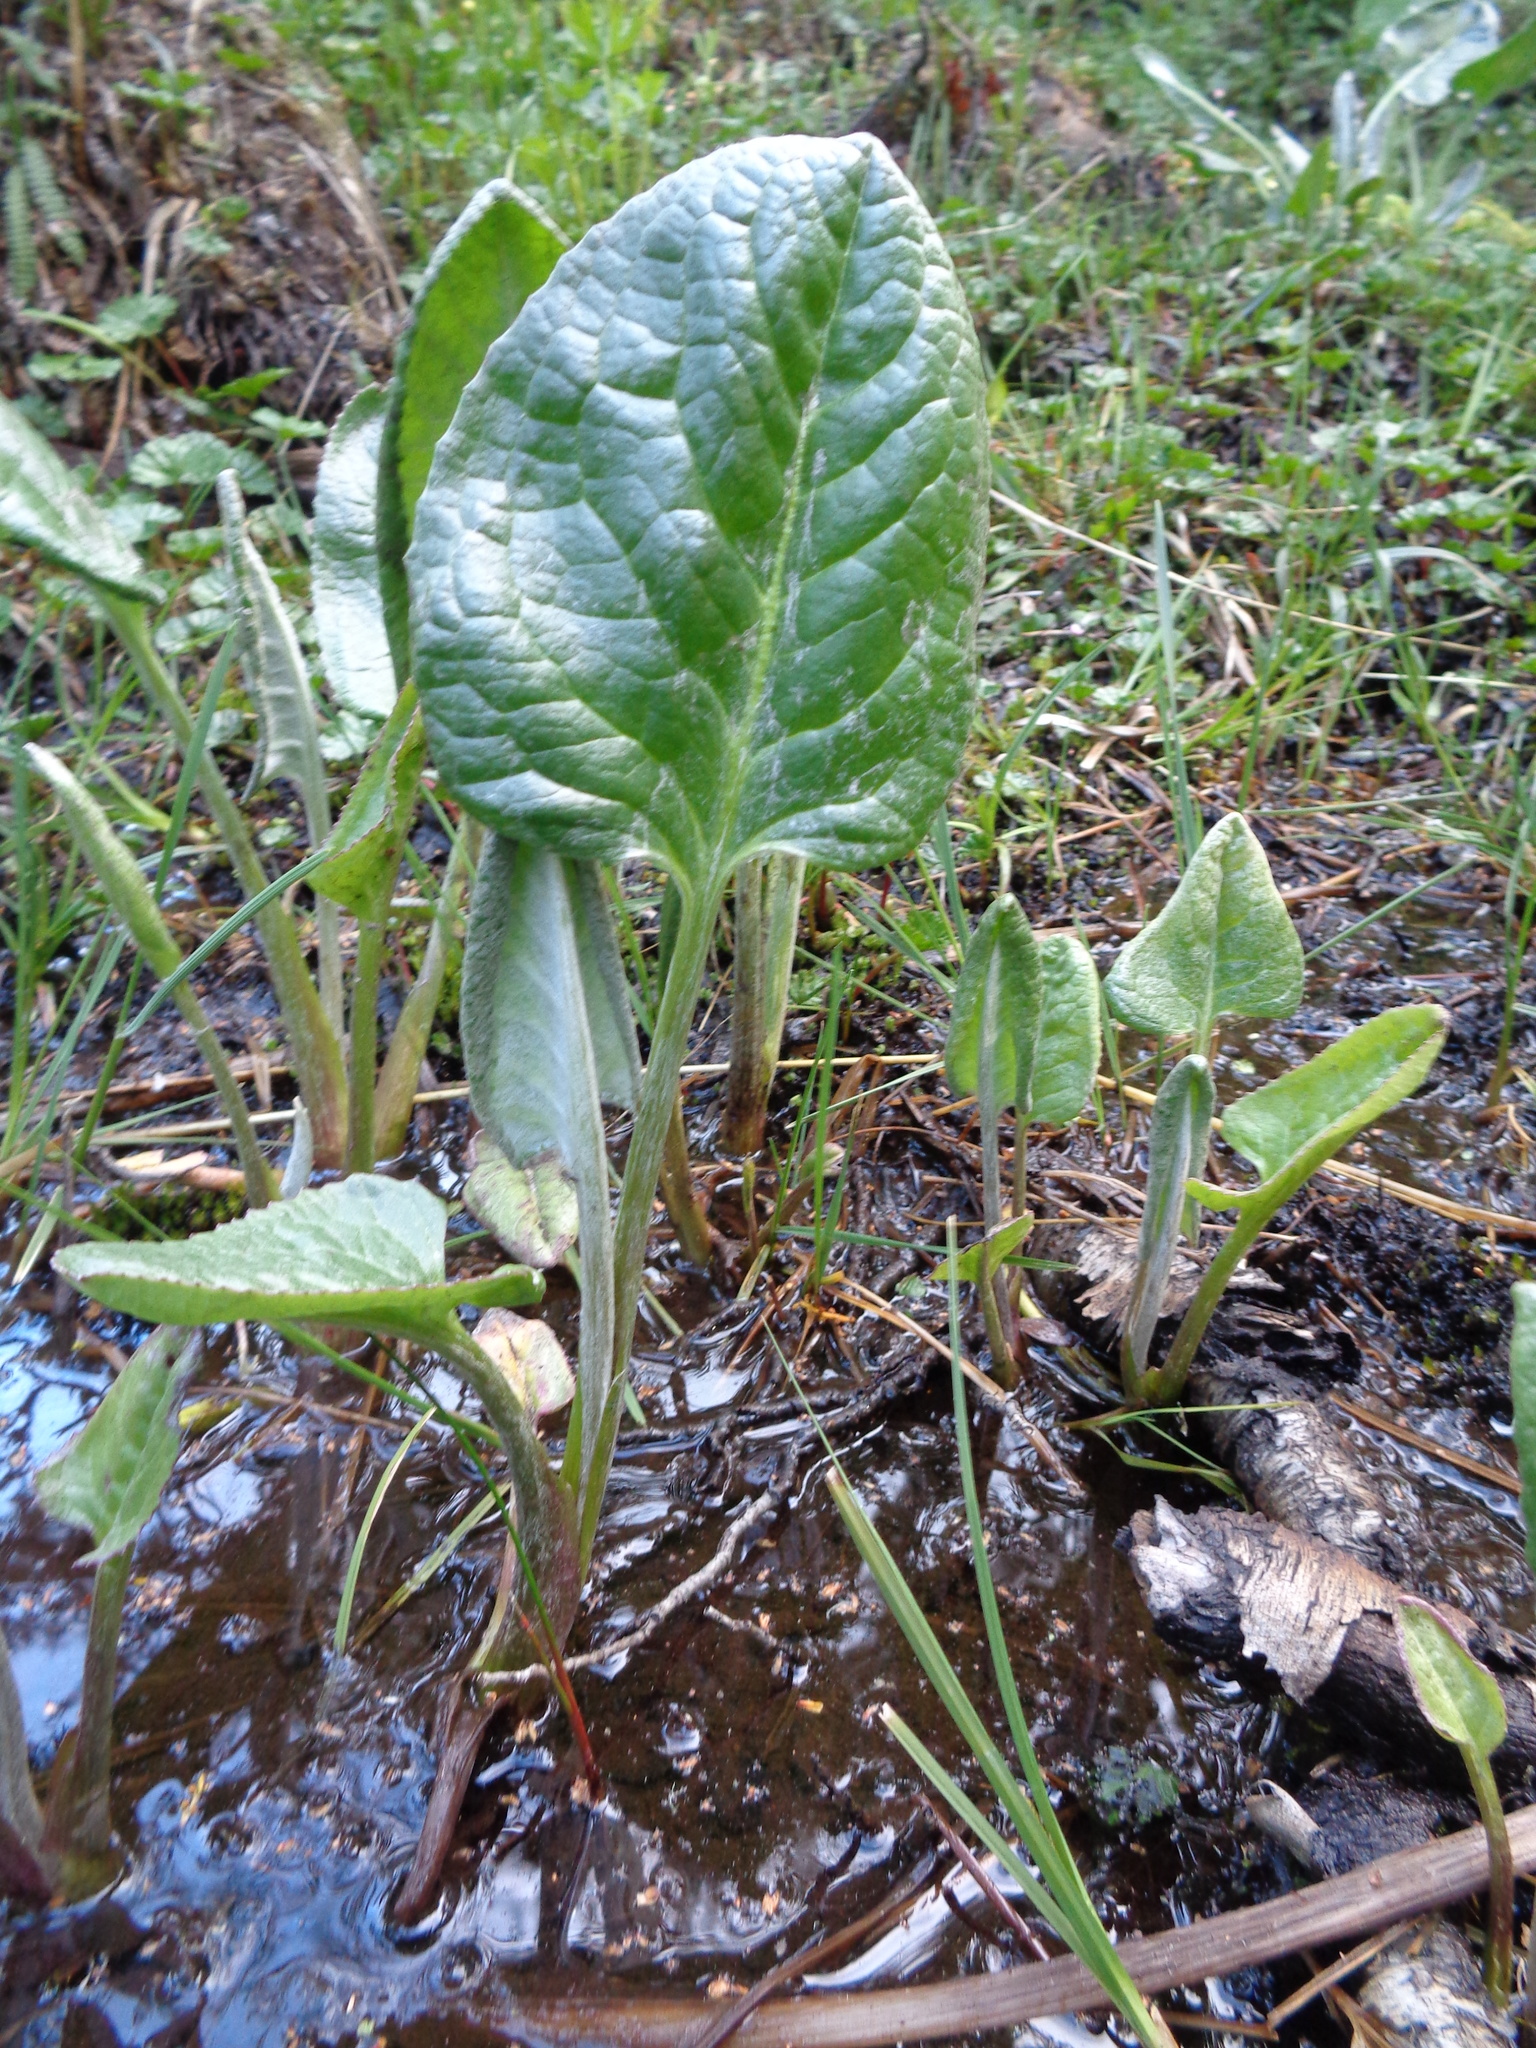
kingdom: Plantae
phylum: Tracheophyta
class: Magnoliopsida
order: Asterales
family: Asteraceae
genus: Senecio
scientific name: Senecio smithii
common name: Magellan ragwort
